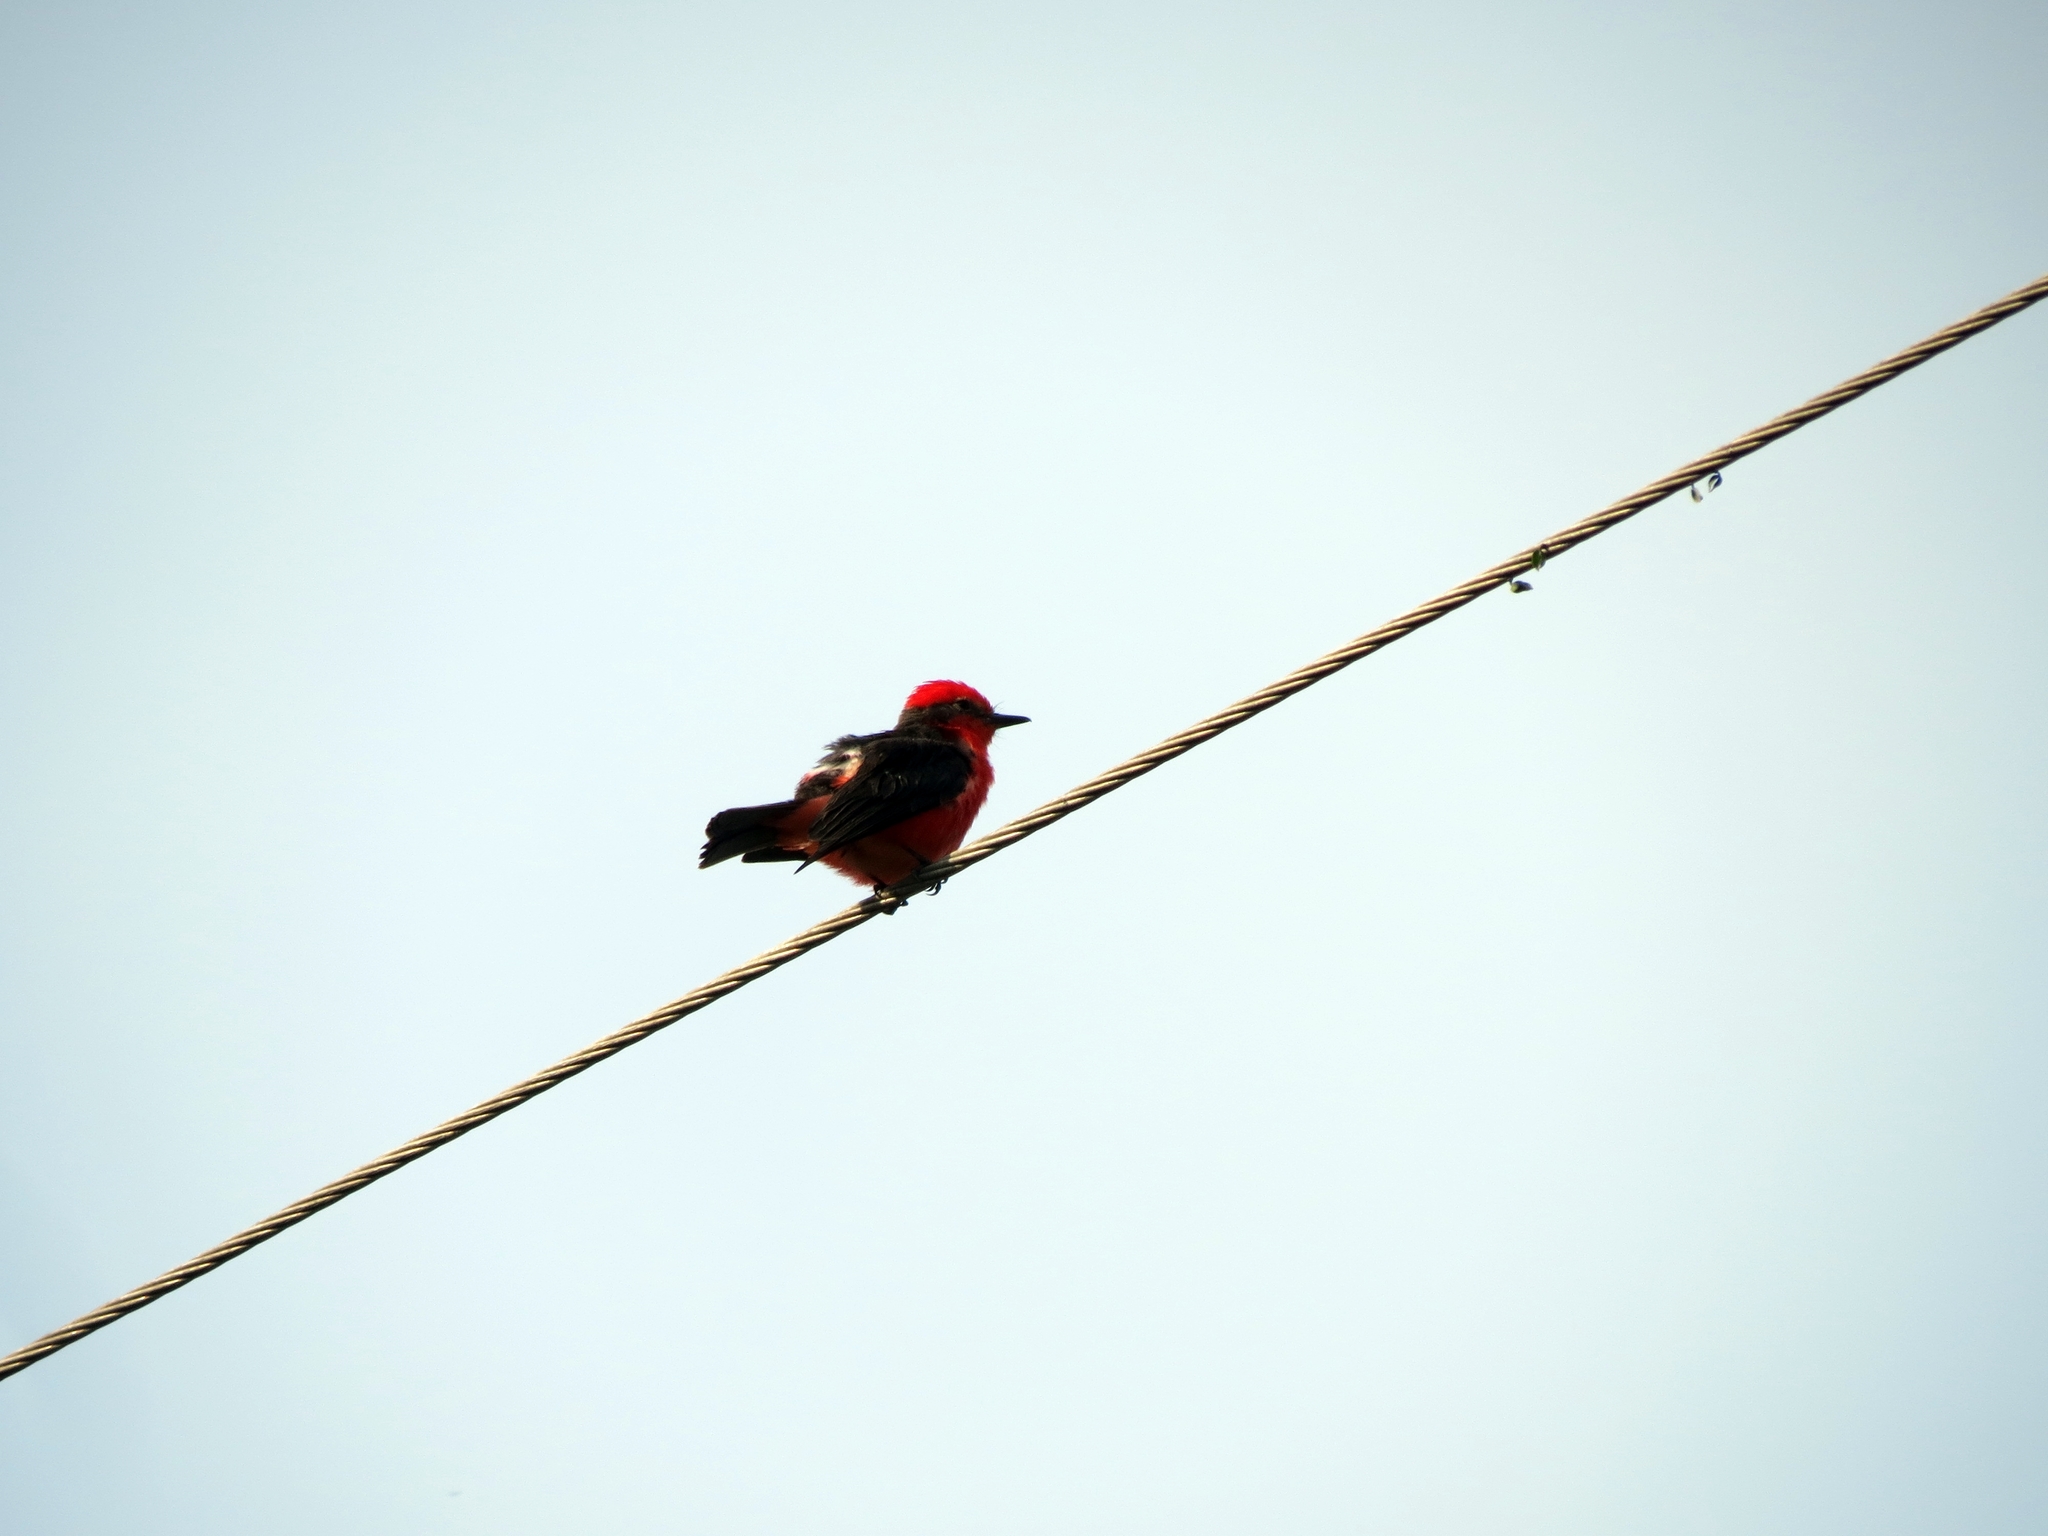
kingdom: Animalia
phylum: Chordata
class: Aves
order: Passeriformes
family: Tyrannidae
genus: Pyrocephalus
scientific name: Pyrocephalus rubinus
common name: Vermilion flycatcher
